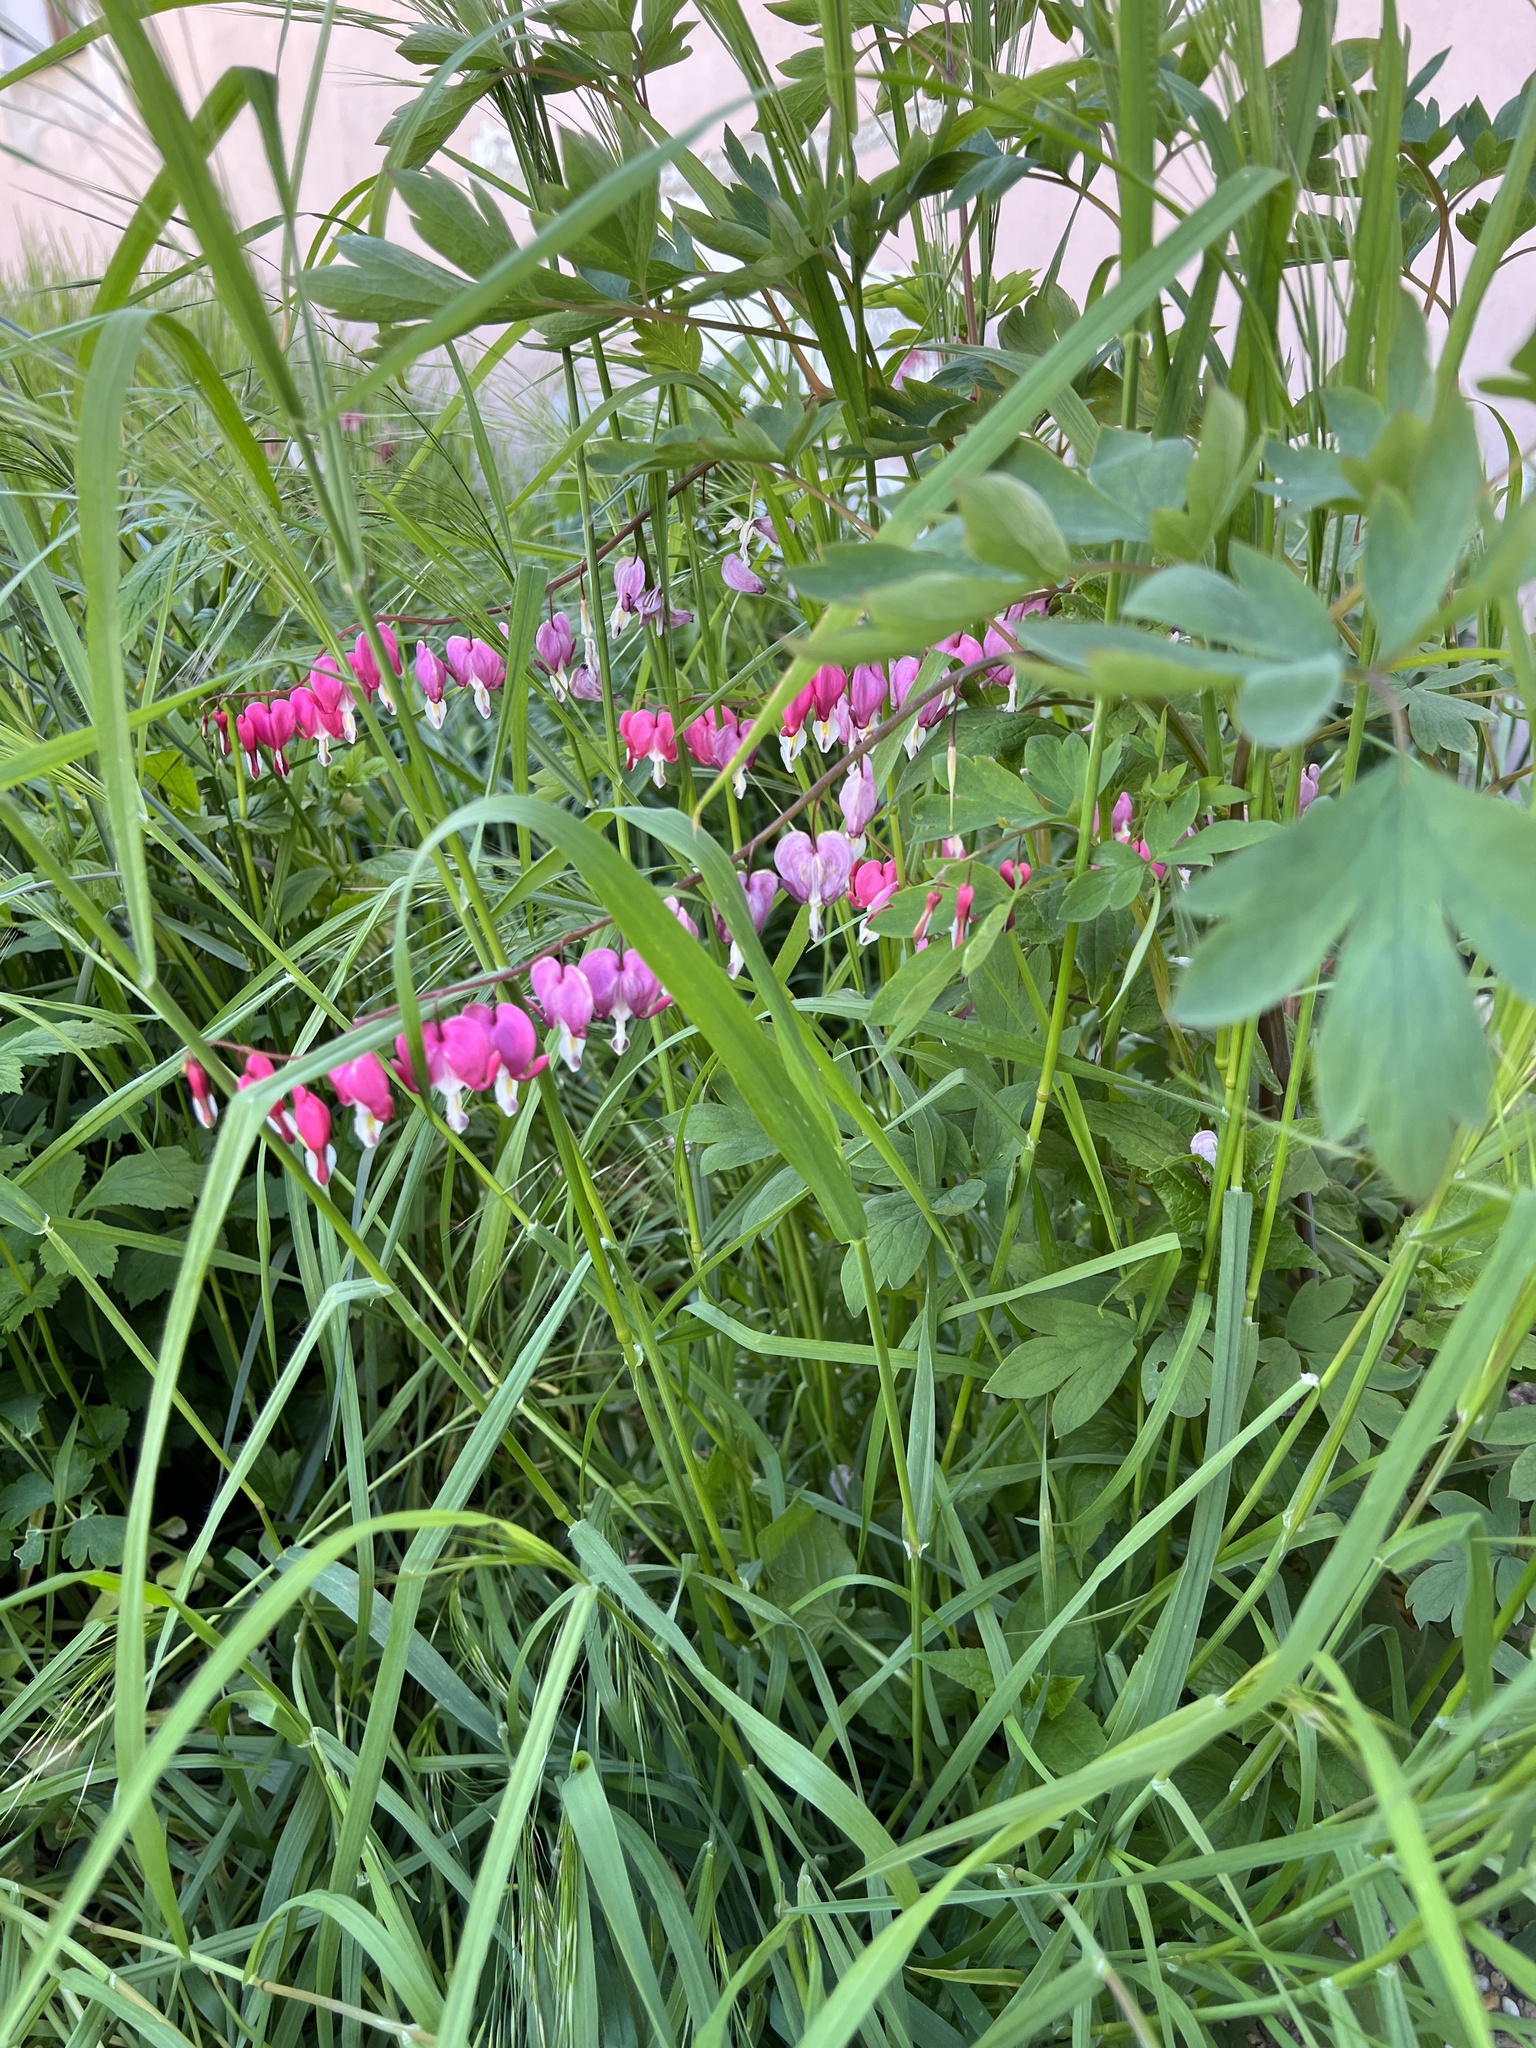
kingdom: Plantae
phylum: Tracheophyta
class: Magnoliopsida
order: Ranunculales
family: Papaveraceae
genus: Lamprocapnos
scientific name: Lamprocapnos spectabilis
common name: Asian bleeding-heart
